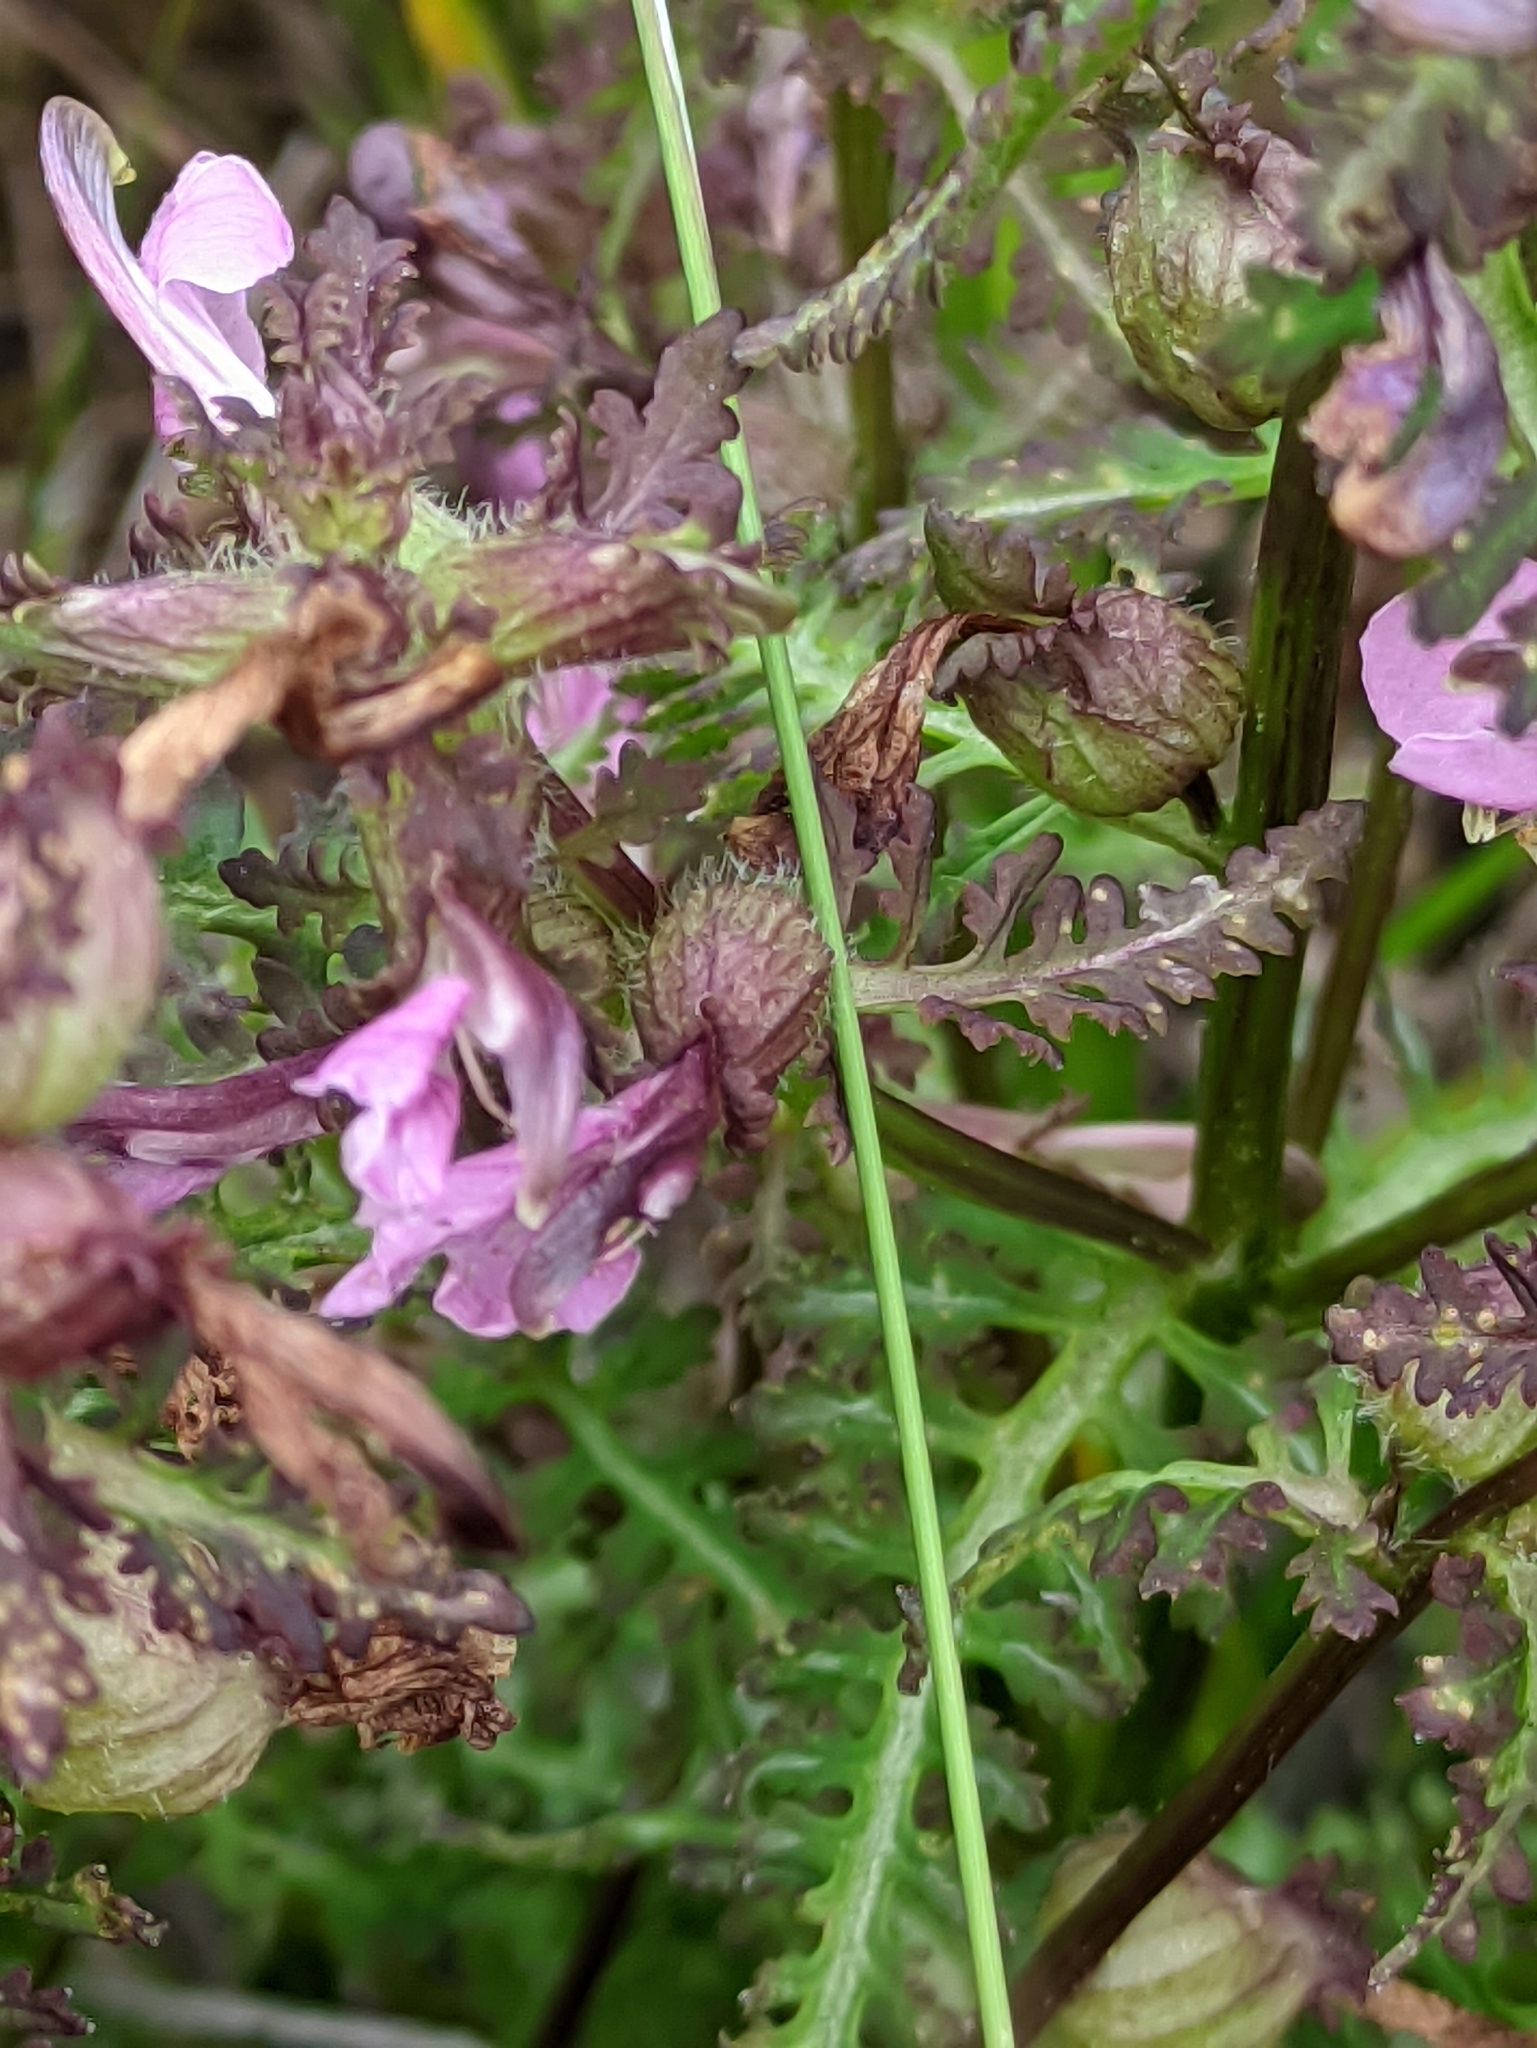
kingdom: Plantae
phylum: Tracheophyta
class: Magnoliopsida
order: Lamiales
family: Orobanchaceae
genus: Pedicularis
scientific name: Pedicularis palustris
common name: Marsh lousewort
